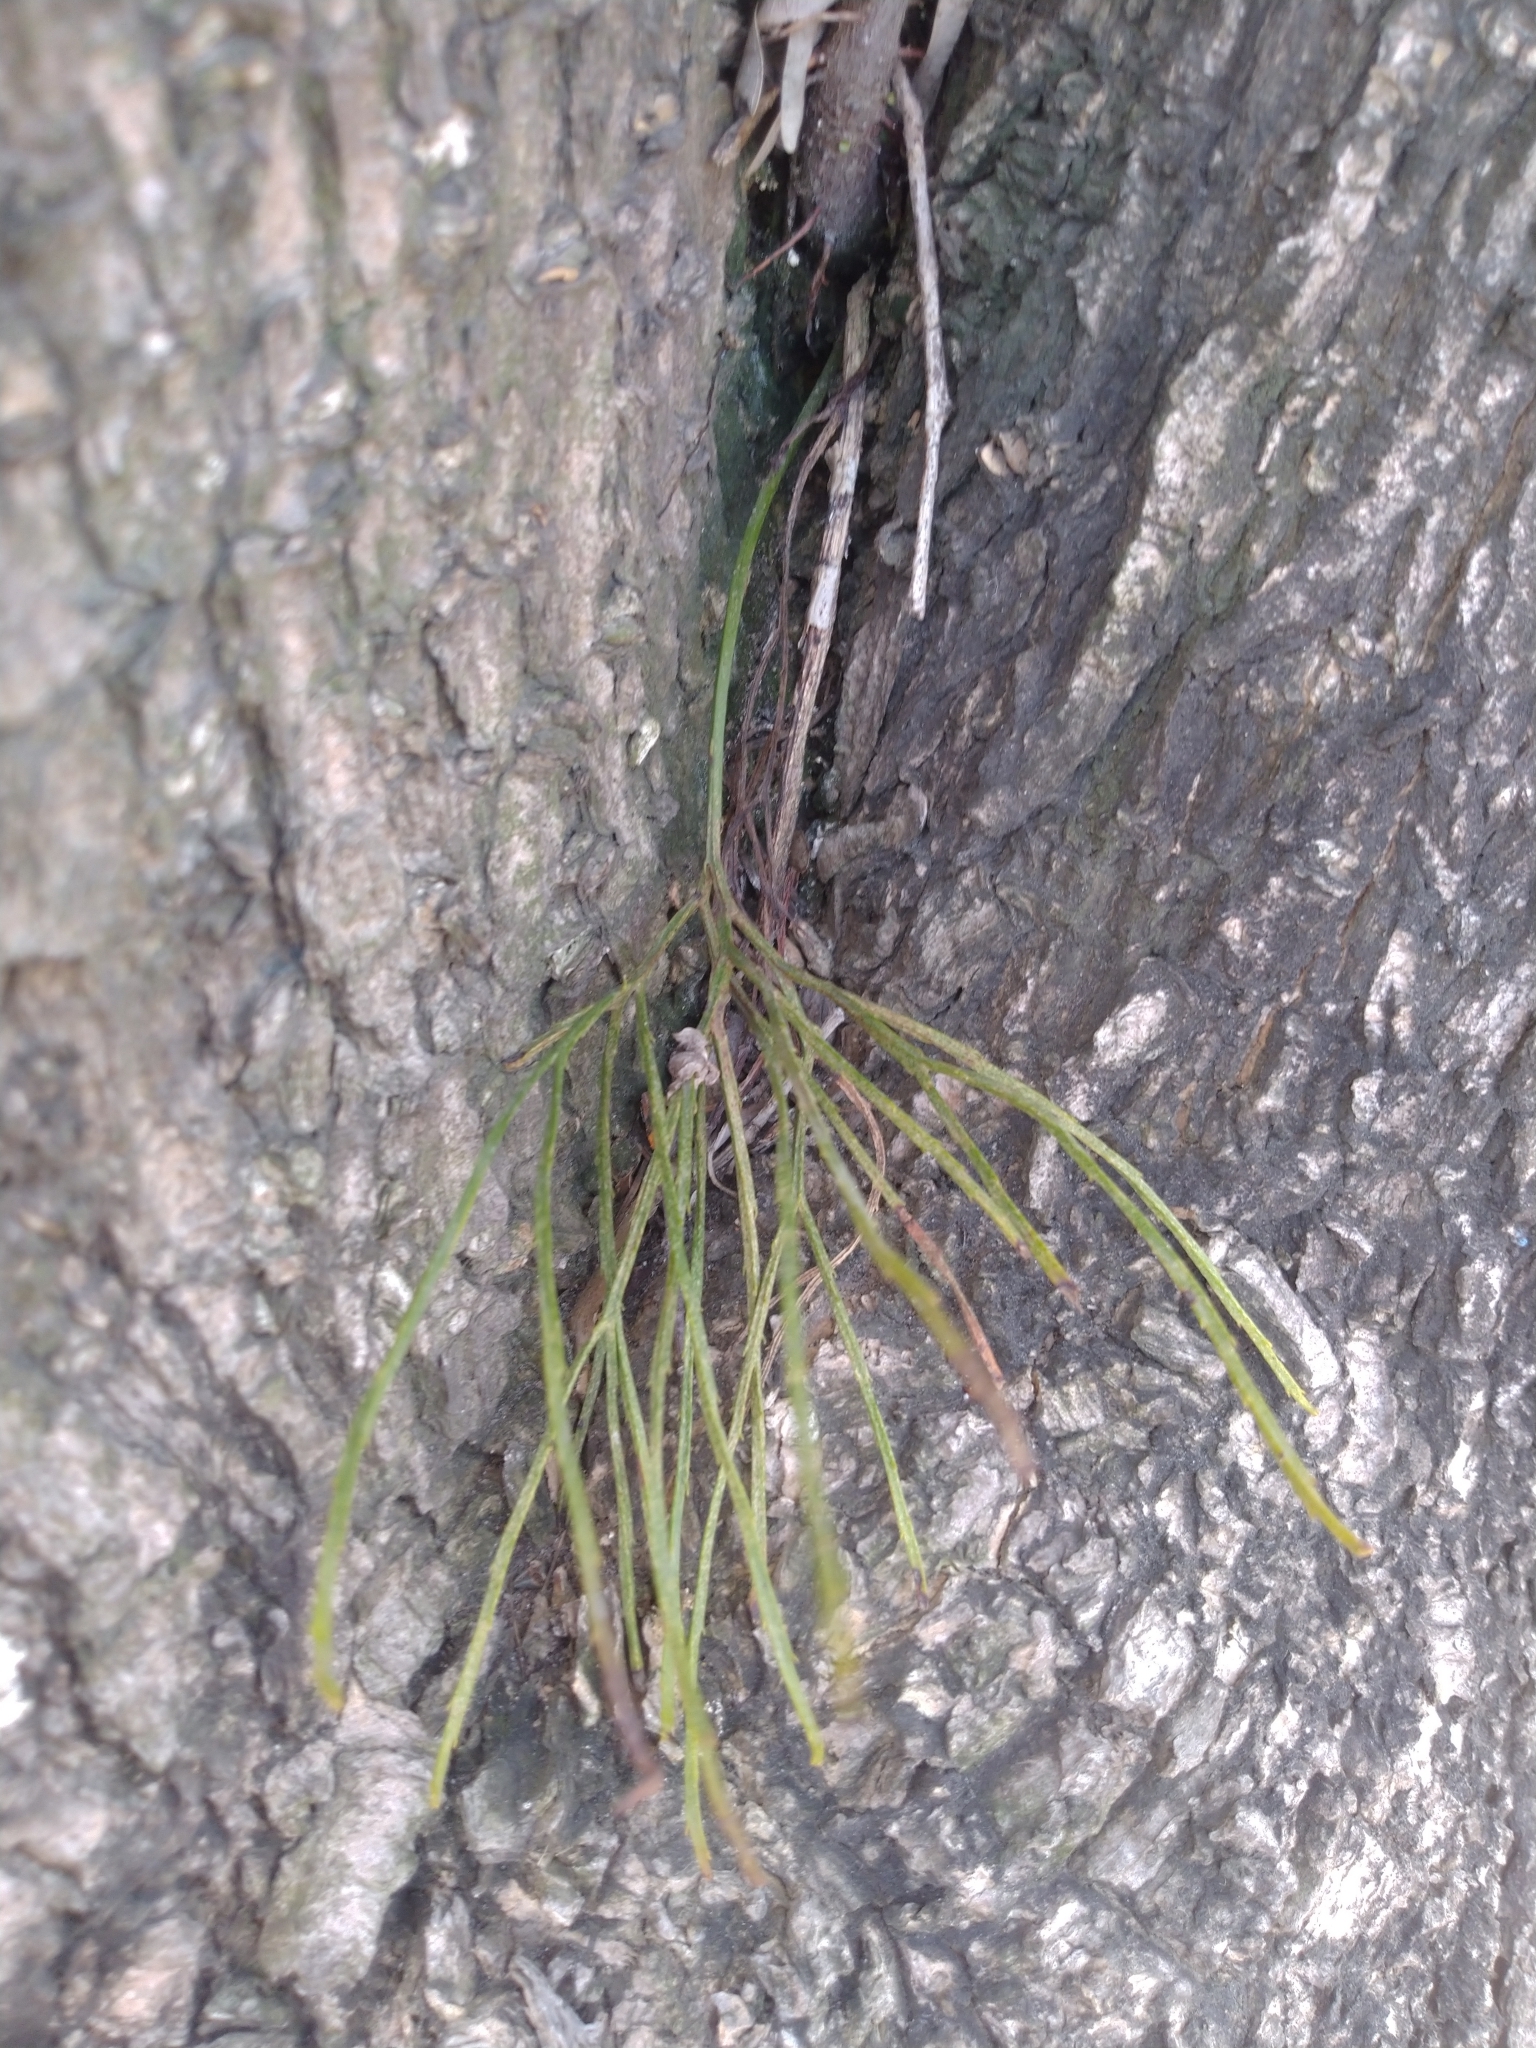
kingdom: Plantae
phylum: Tracheophyta
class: Polypodiopsida
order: Psilotales
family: Psilotaceae
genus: Psilotum
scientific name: Psilotum nudum
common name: Skeleton fork fern
